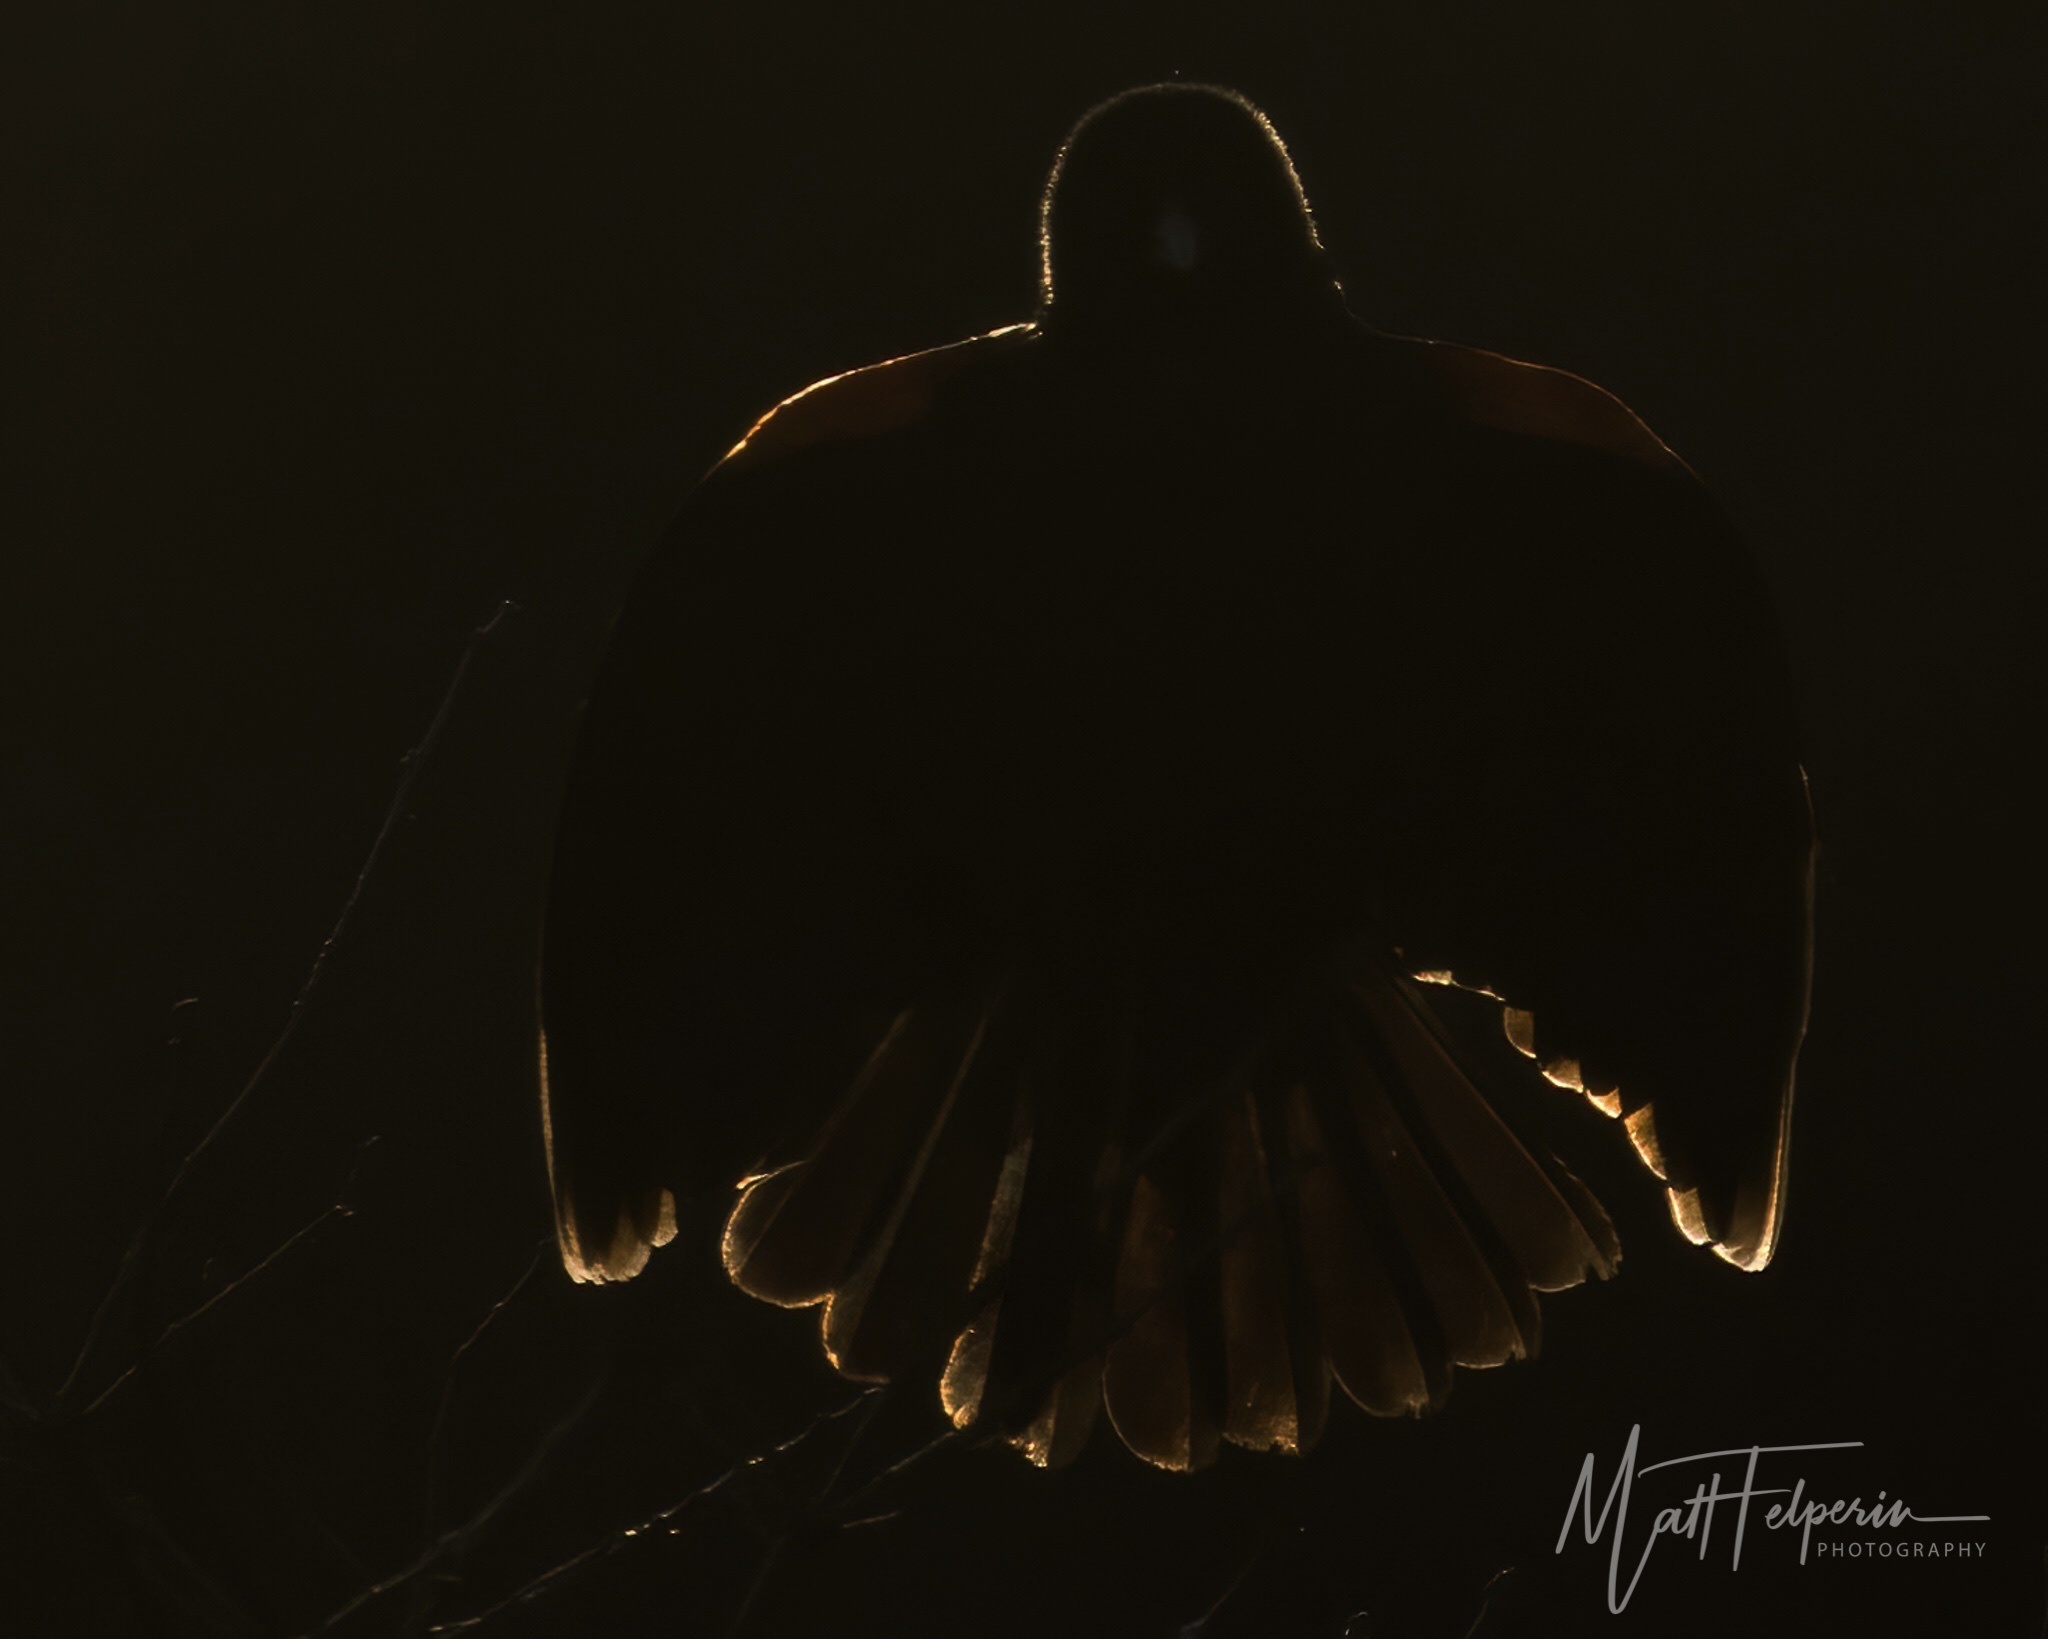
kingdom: Animalia
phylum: Chordata
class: Aves
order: Passeriformes
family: Icteridae
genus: Agelaius
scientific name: Agelaius phoeniceus
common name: Red-winged blackbird
